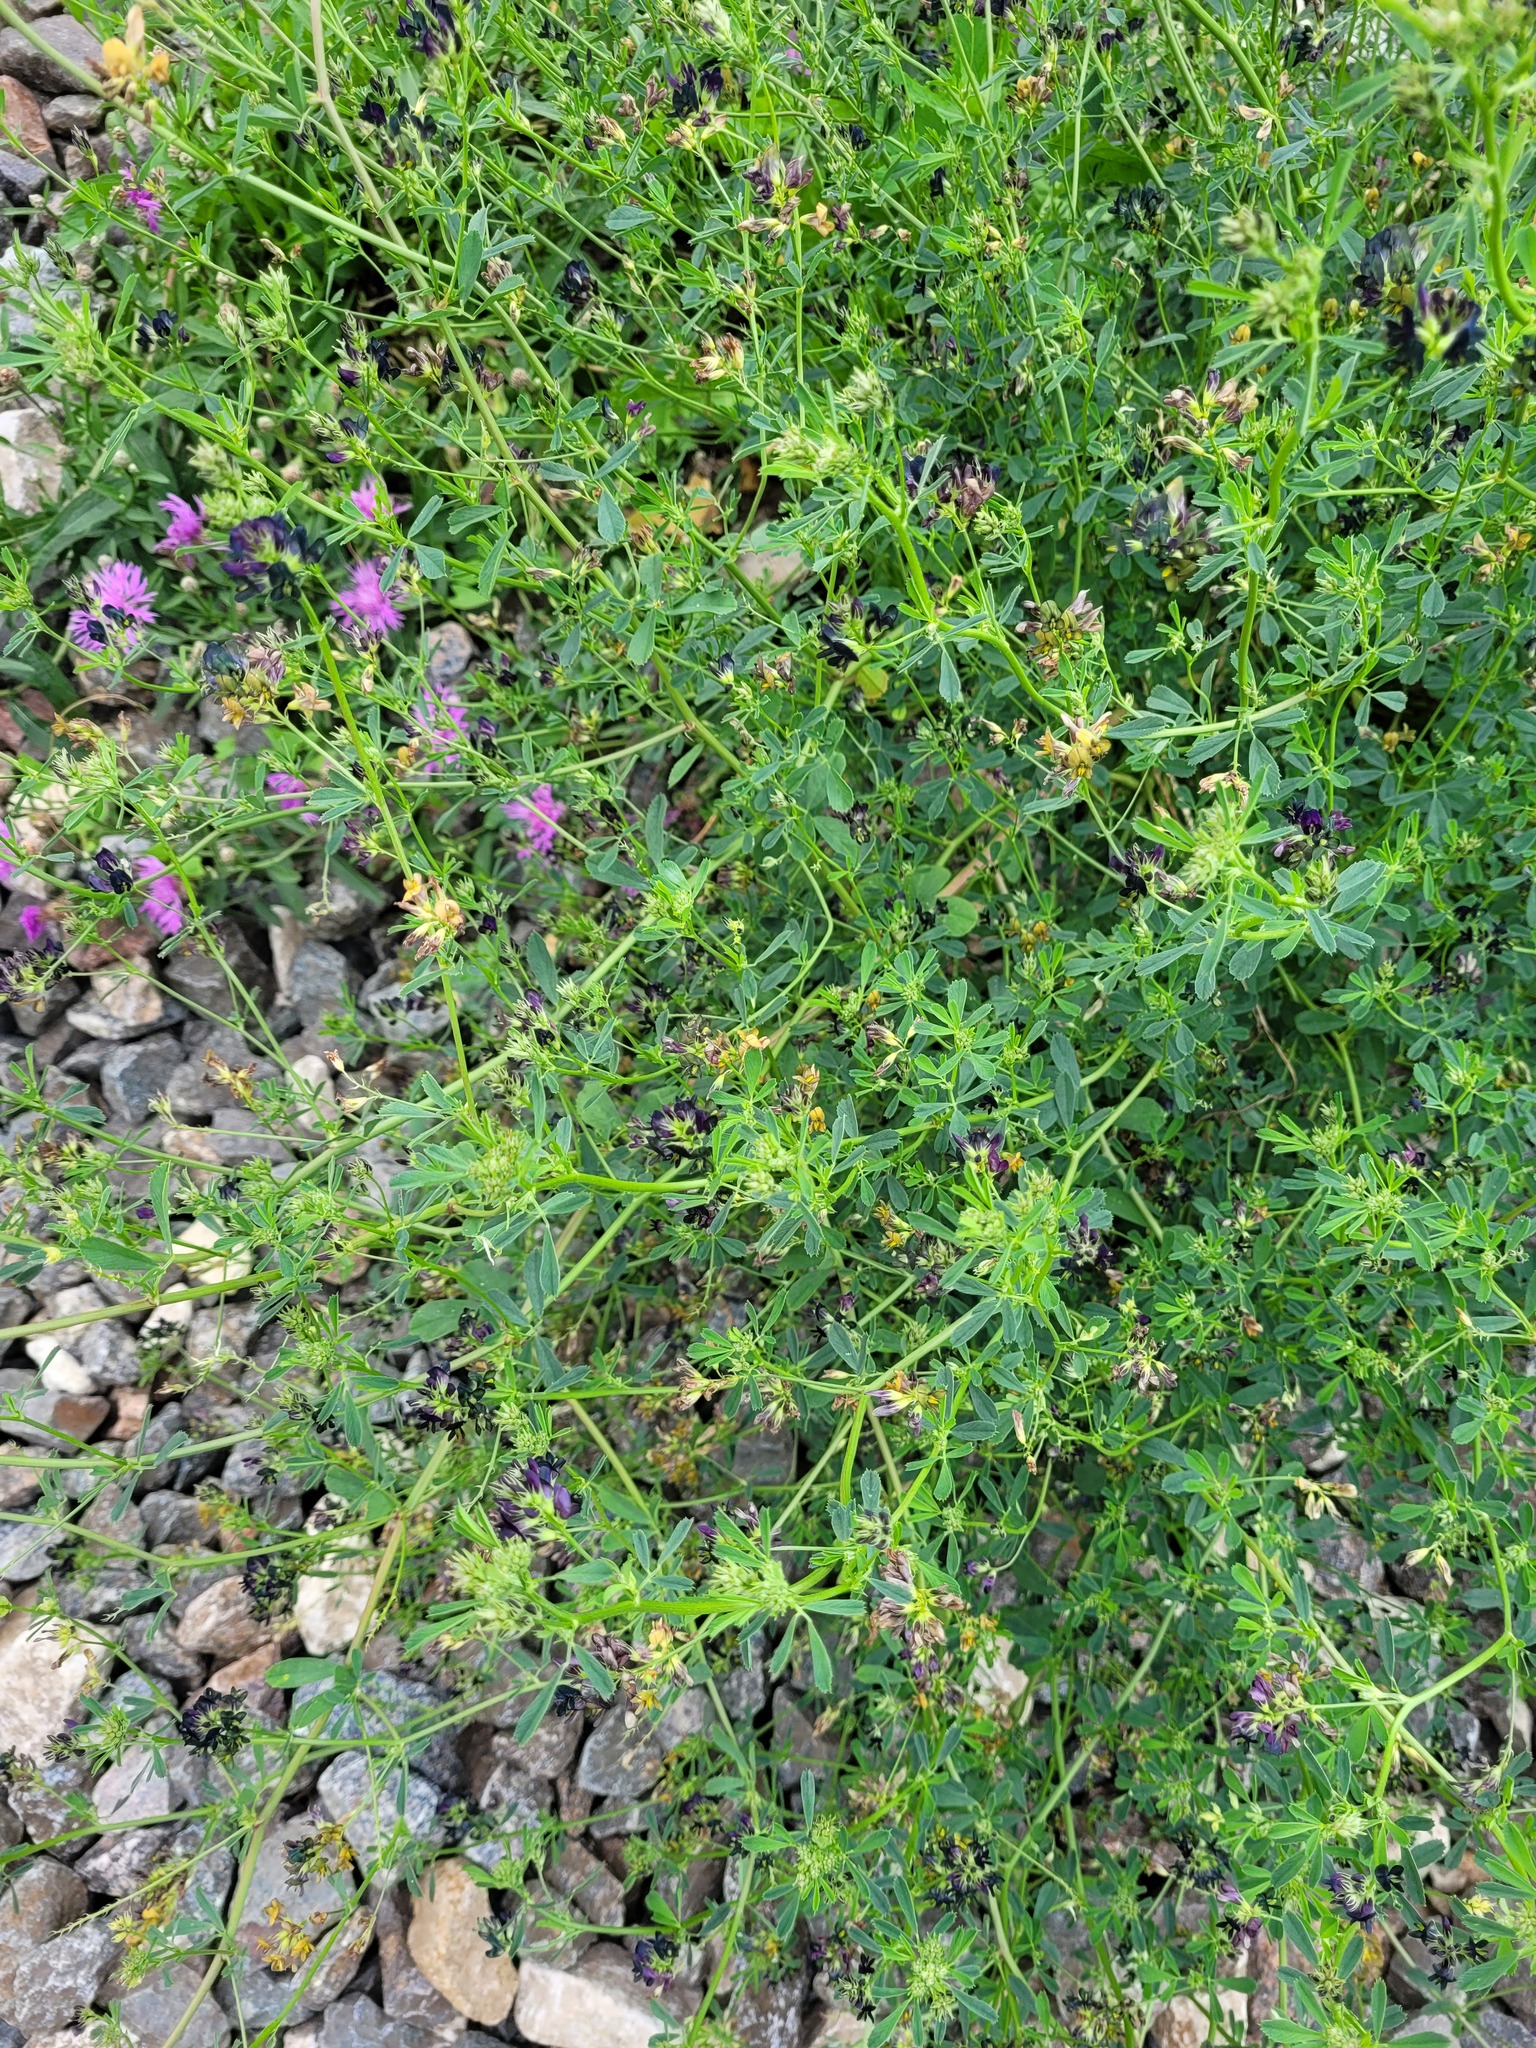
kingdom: Plantae
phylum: Tracheophyta
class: Magnoliopsida
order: Fabales
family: Fabaceae
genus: Medicago
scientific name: Medicago varia
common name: Sand lucerne
